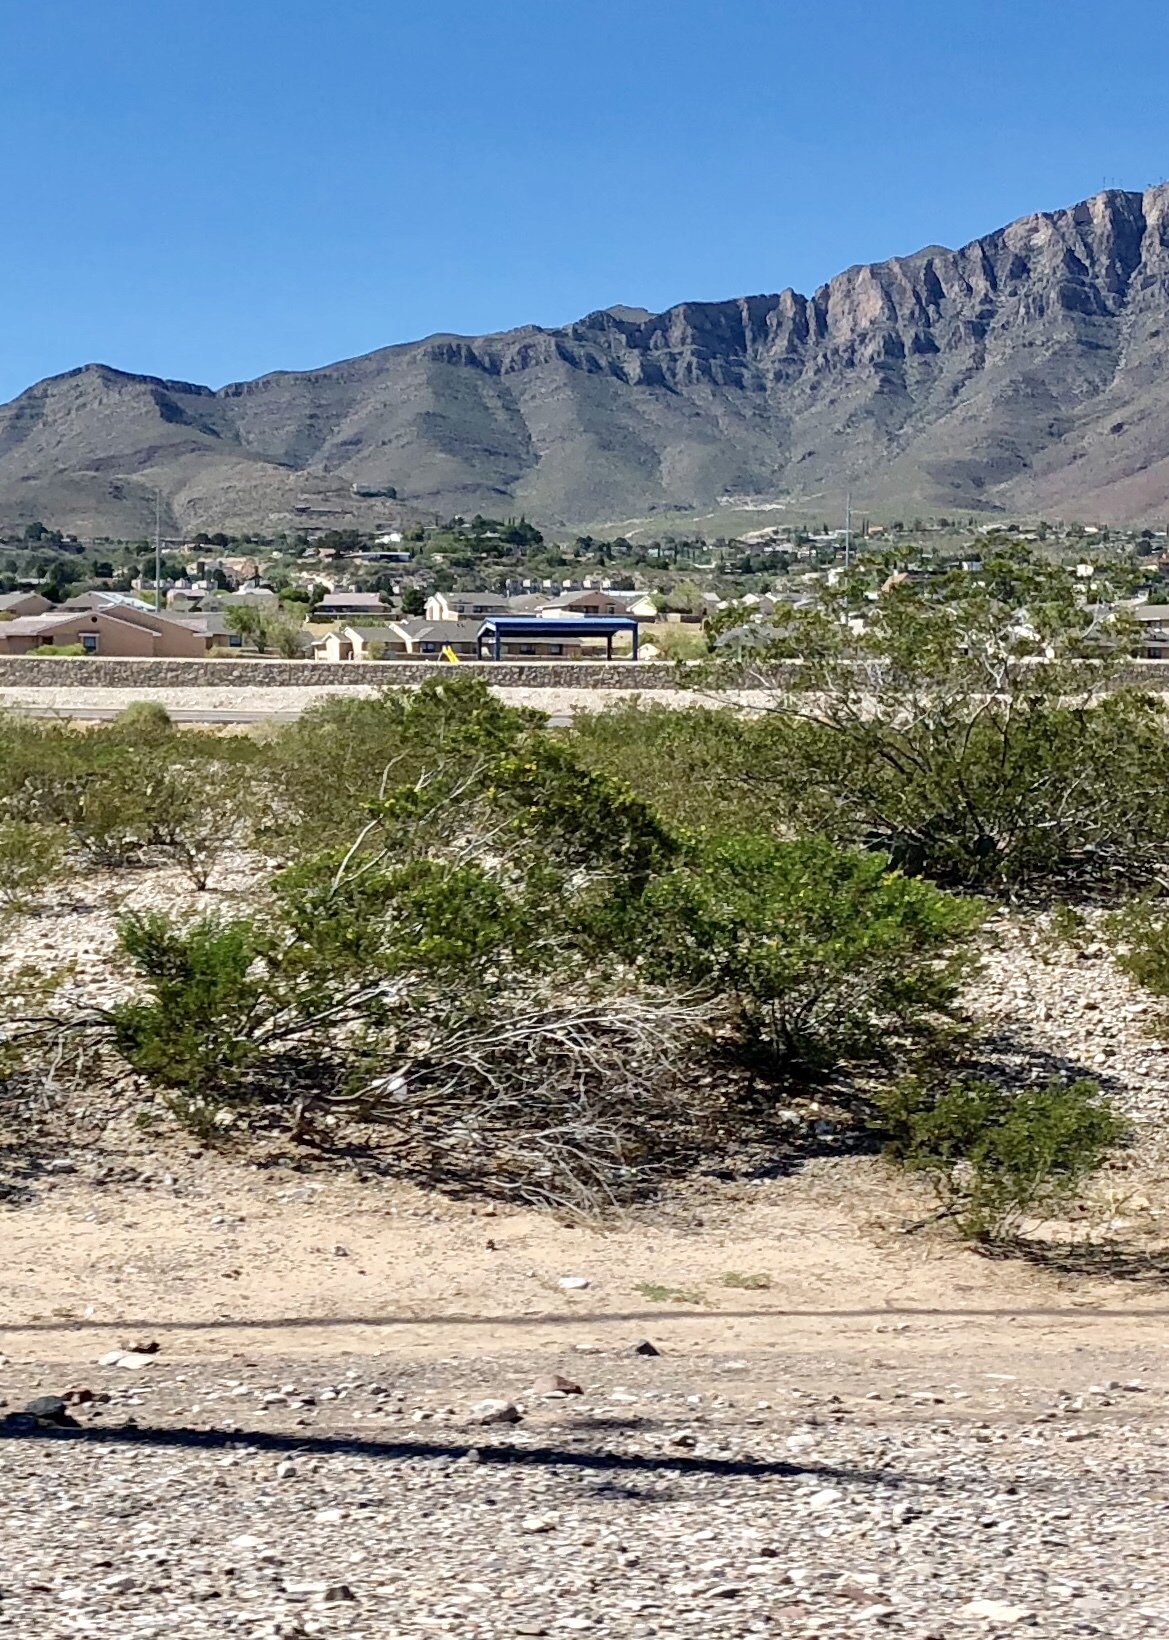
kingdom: Plantae
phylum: Tracheophyta
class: Magnoliopsida
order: Zygophyllales
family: Zygophyllaceae
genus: Larrea
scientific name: Larrea tridentata
